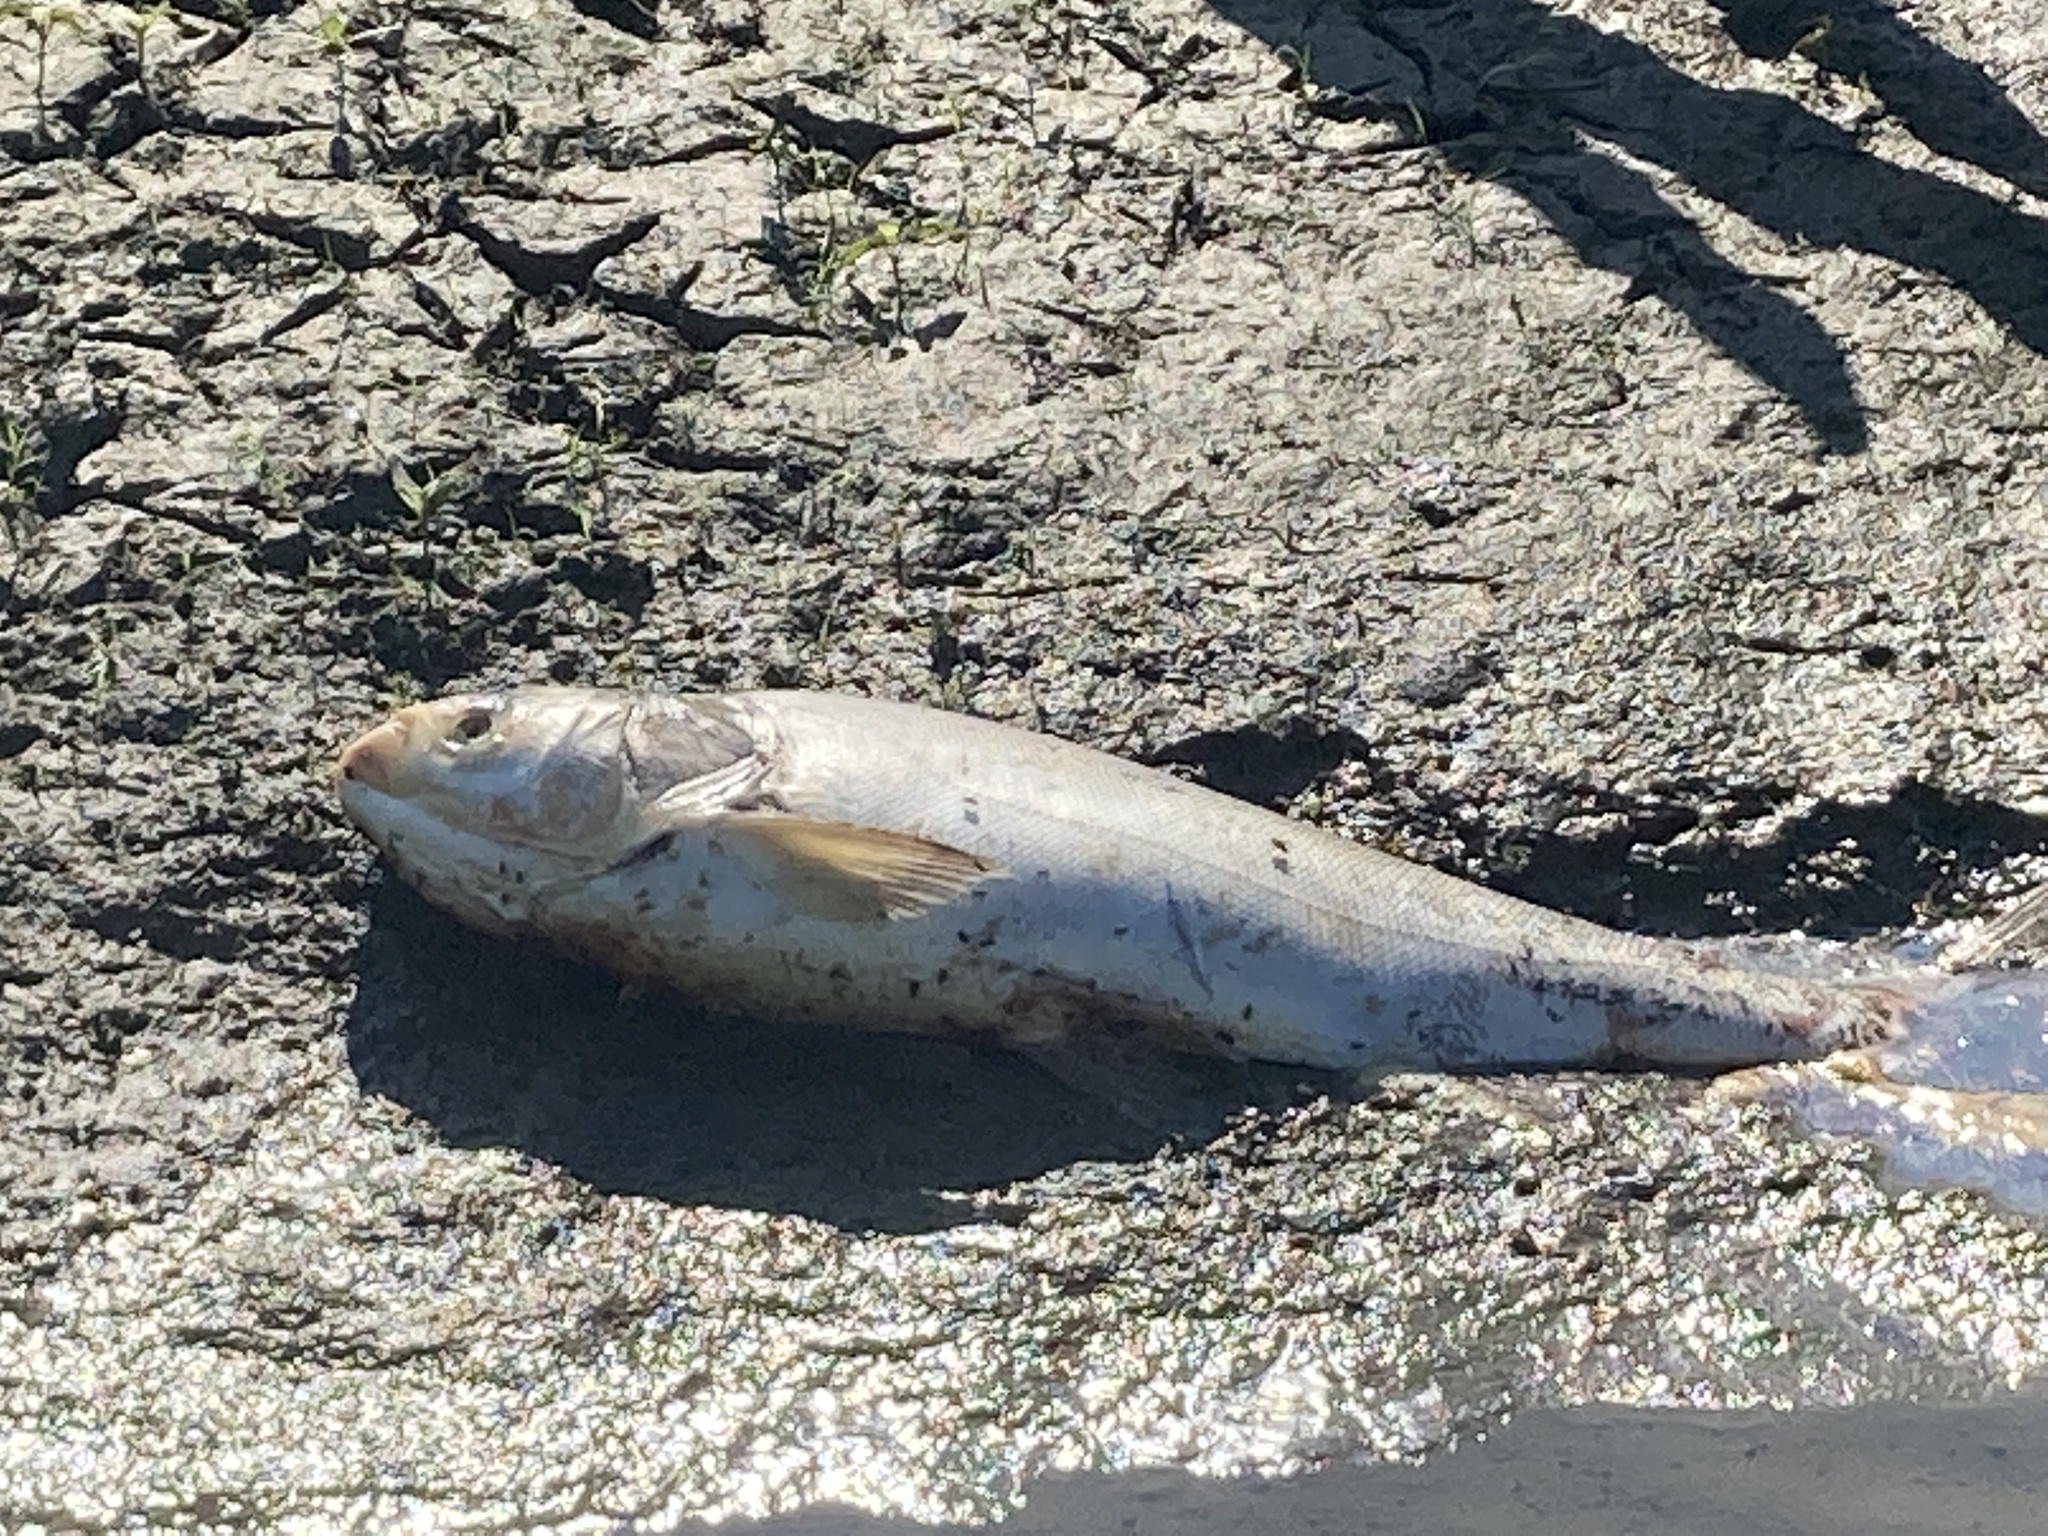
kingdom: Animalia
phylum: Chordata
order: Cypriniformes
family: Cyprinidae
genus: Hypophthalmichthys
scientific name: Hypophthalmichthys molitrix
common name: Silver carp
